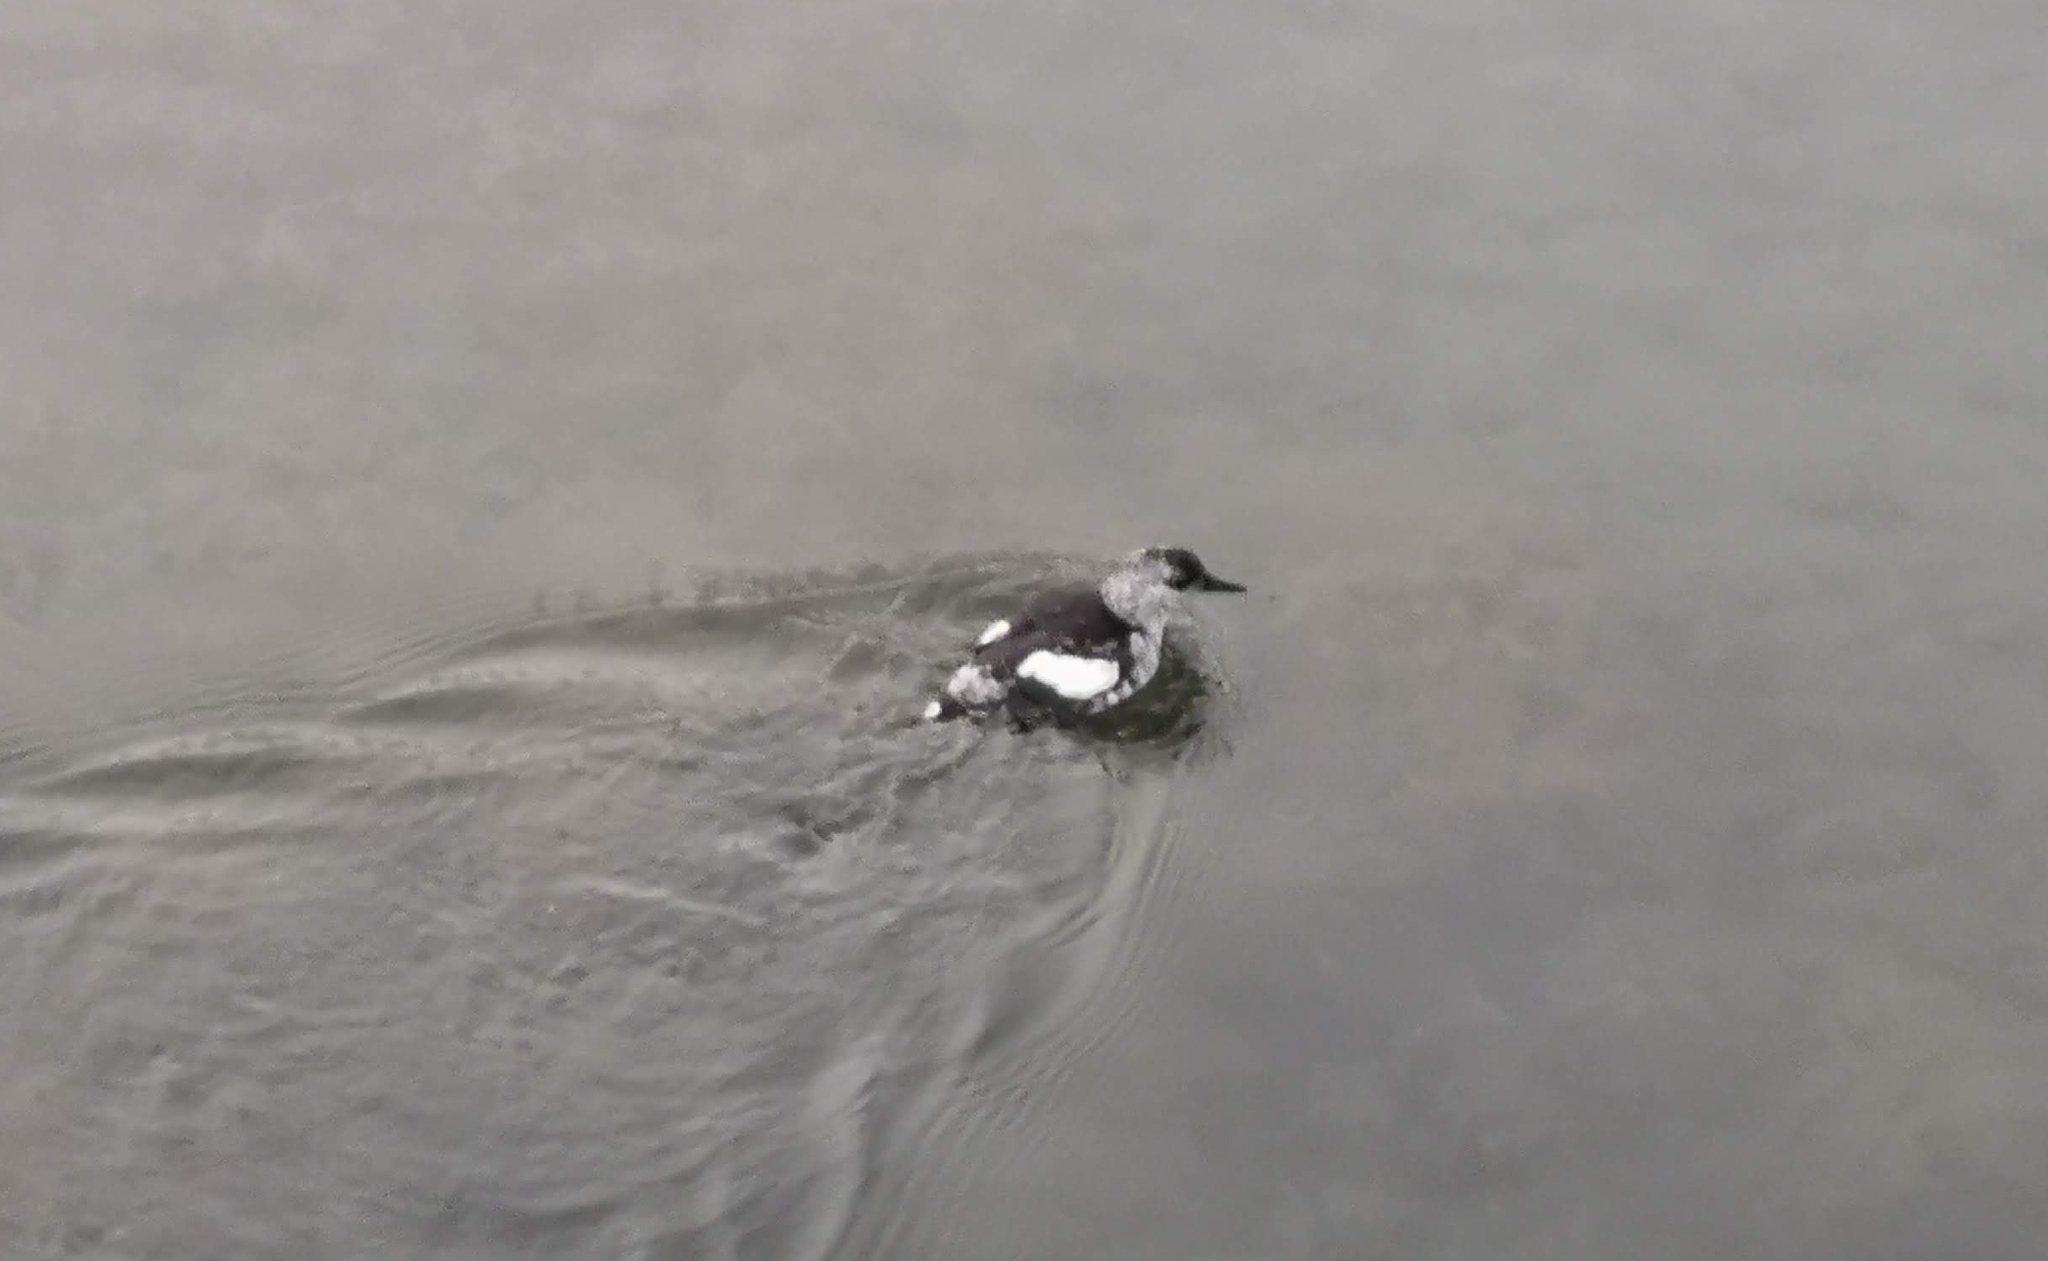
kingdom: Animalia
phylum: Chordata
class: Aves
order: Charadriiformes
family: Alcidae
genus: Cepphus
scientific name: Cepphus grylle
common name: Black guillemot
